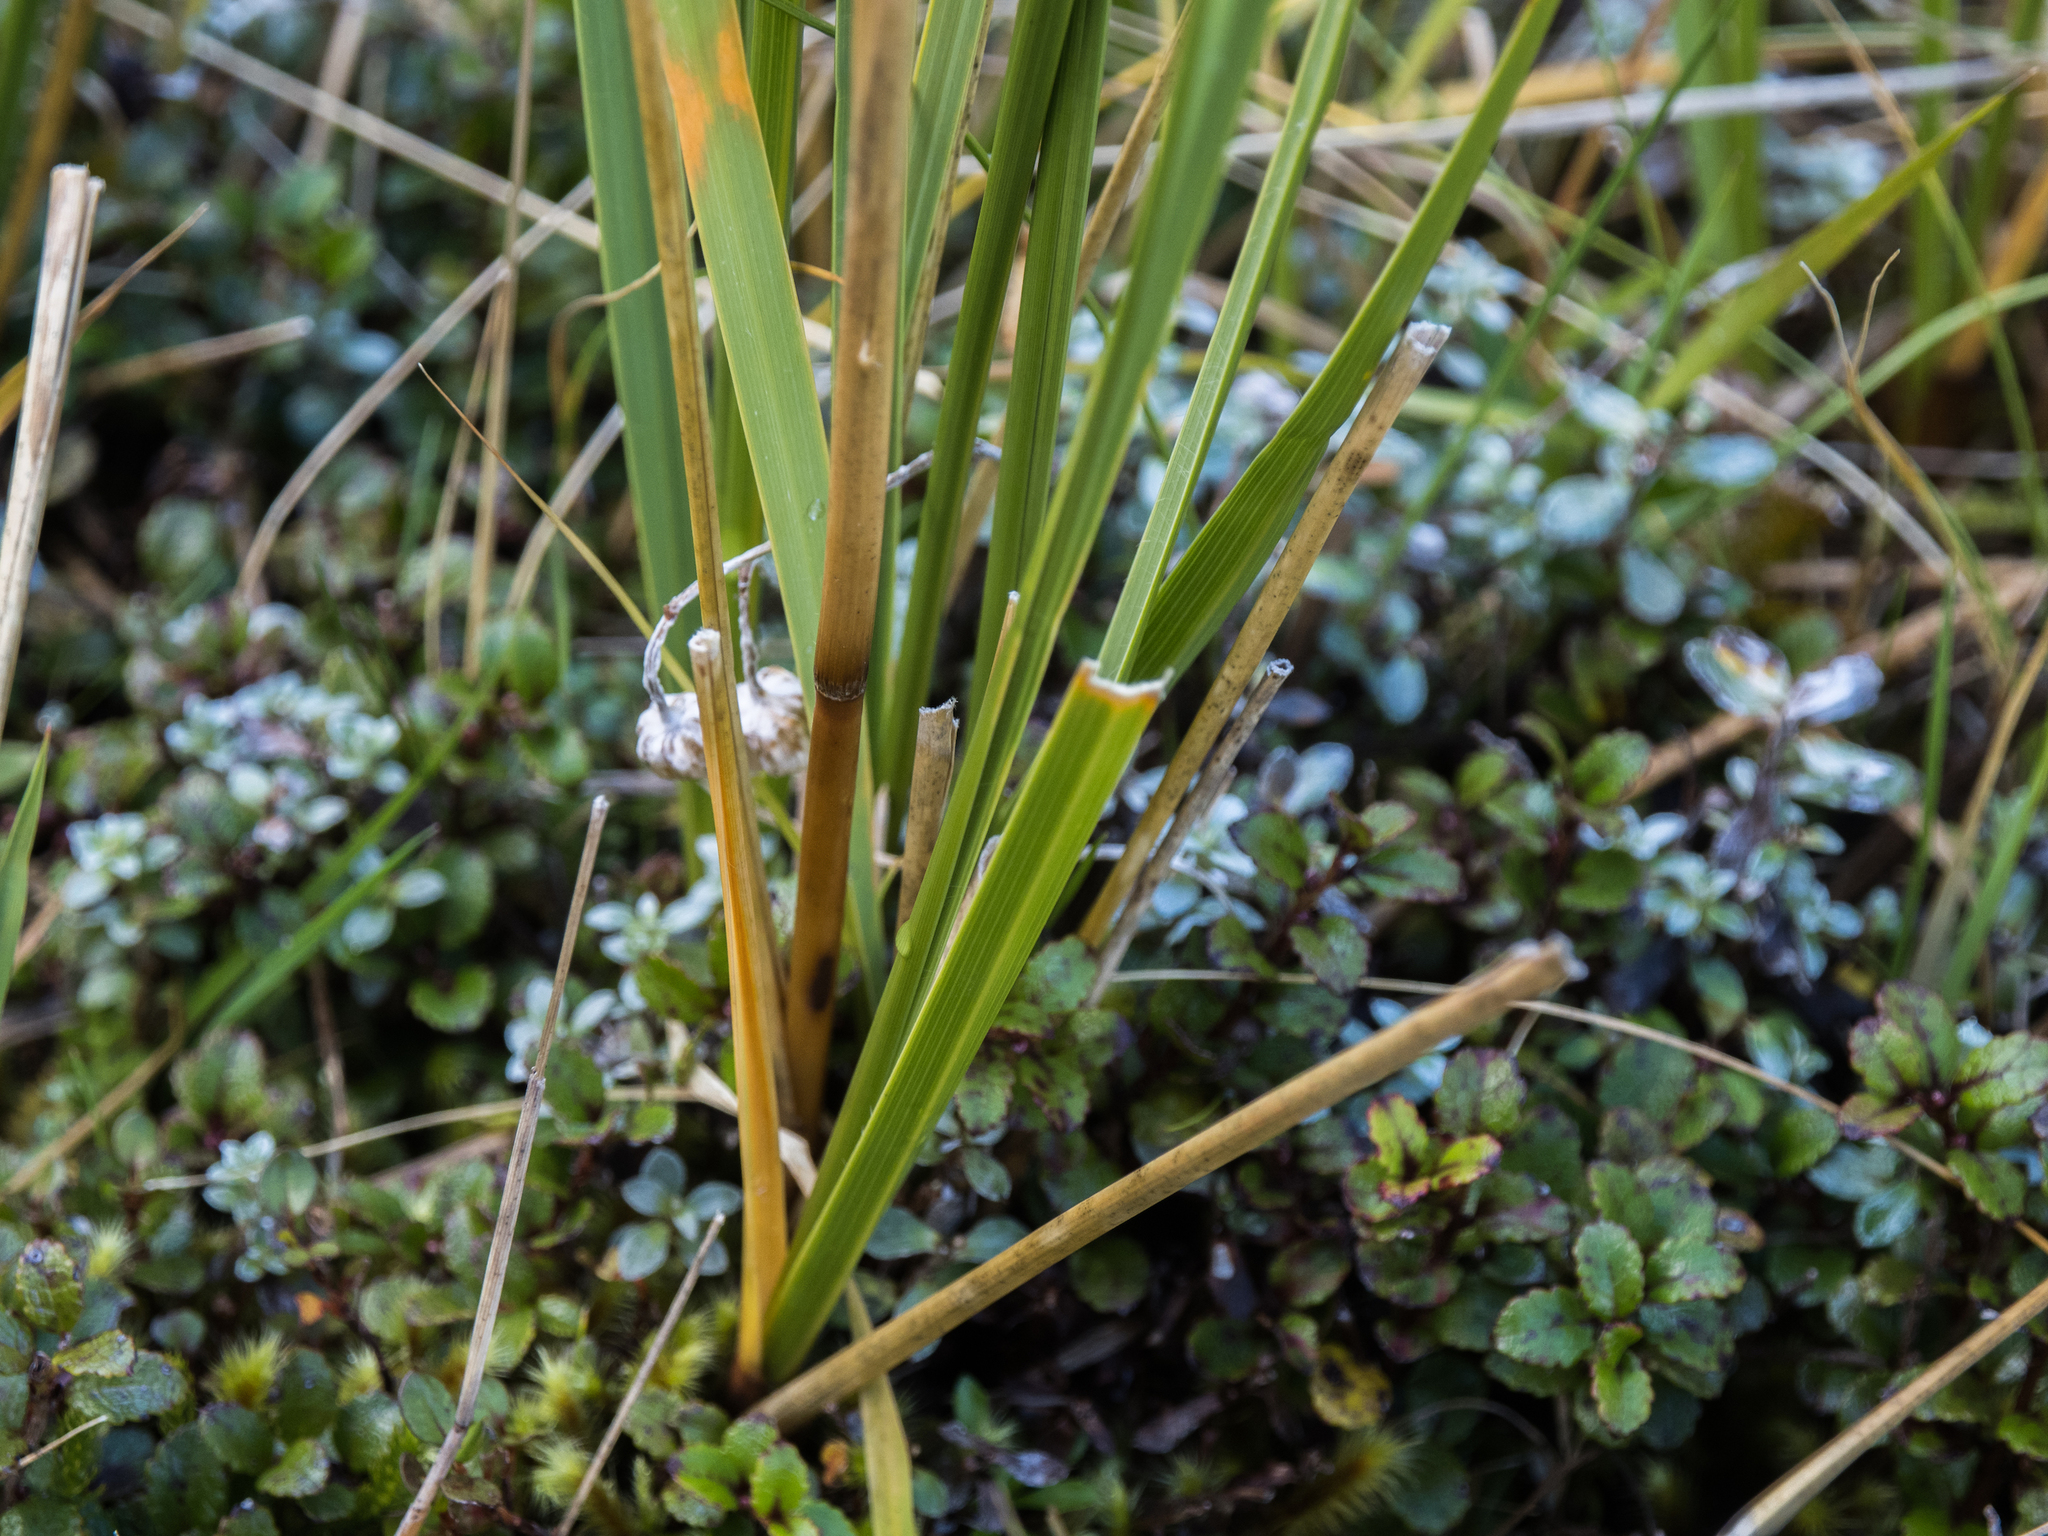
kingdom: Plantae
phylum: Tracheophyta
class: Liliopsida
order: Poales
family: Poaceae
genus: Chionochloa
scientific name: Chionochloa pallens
